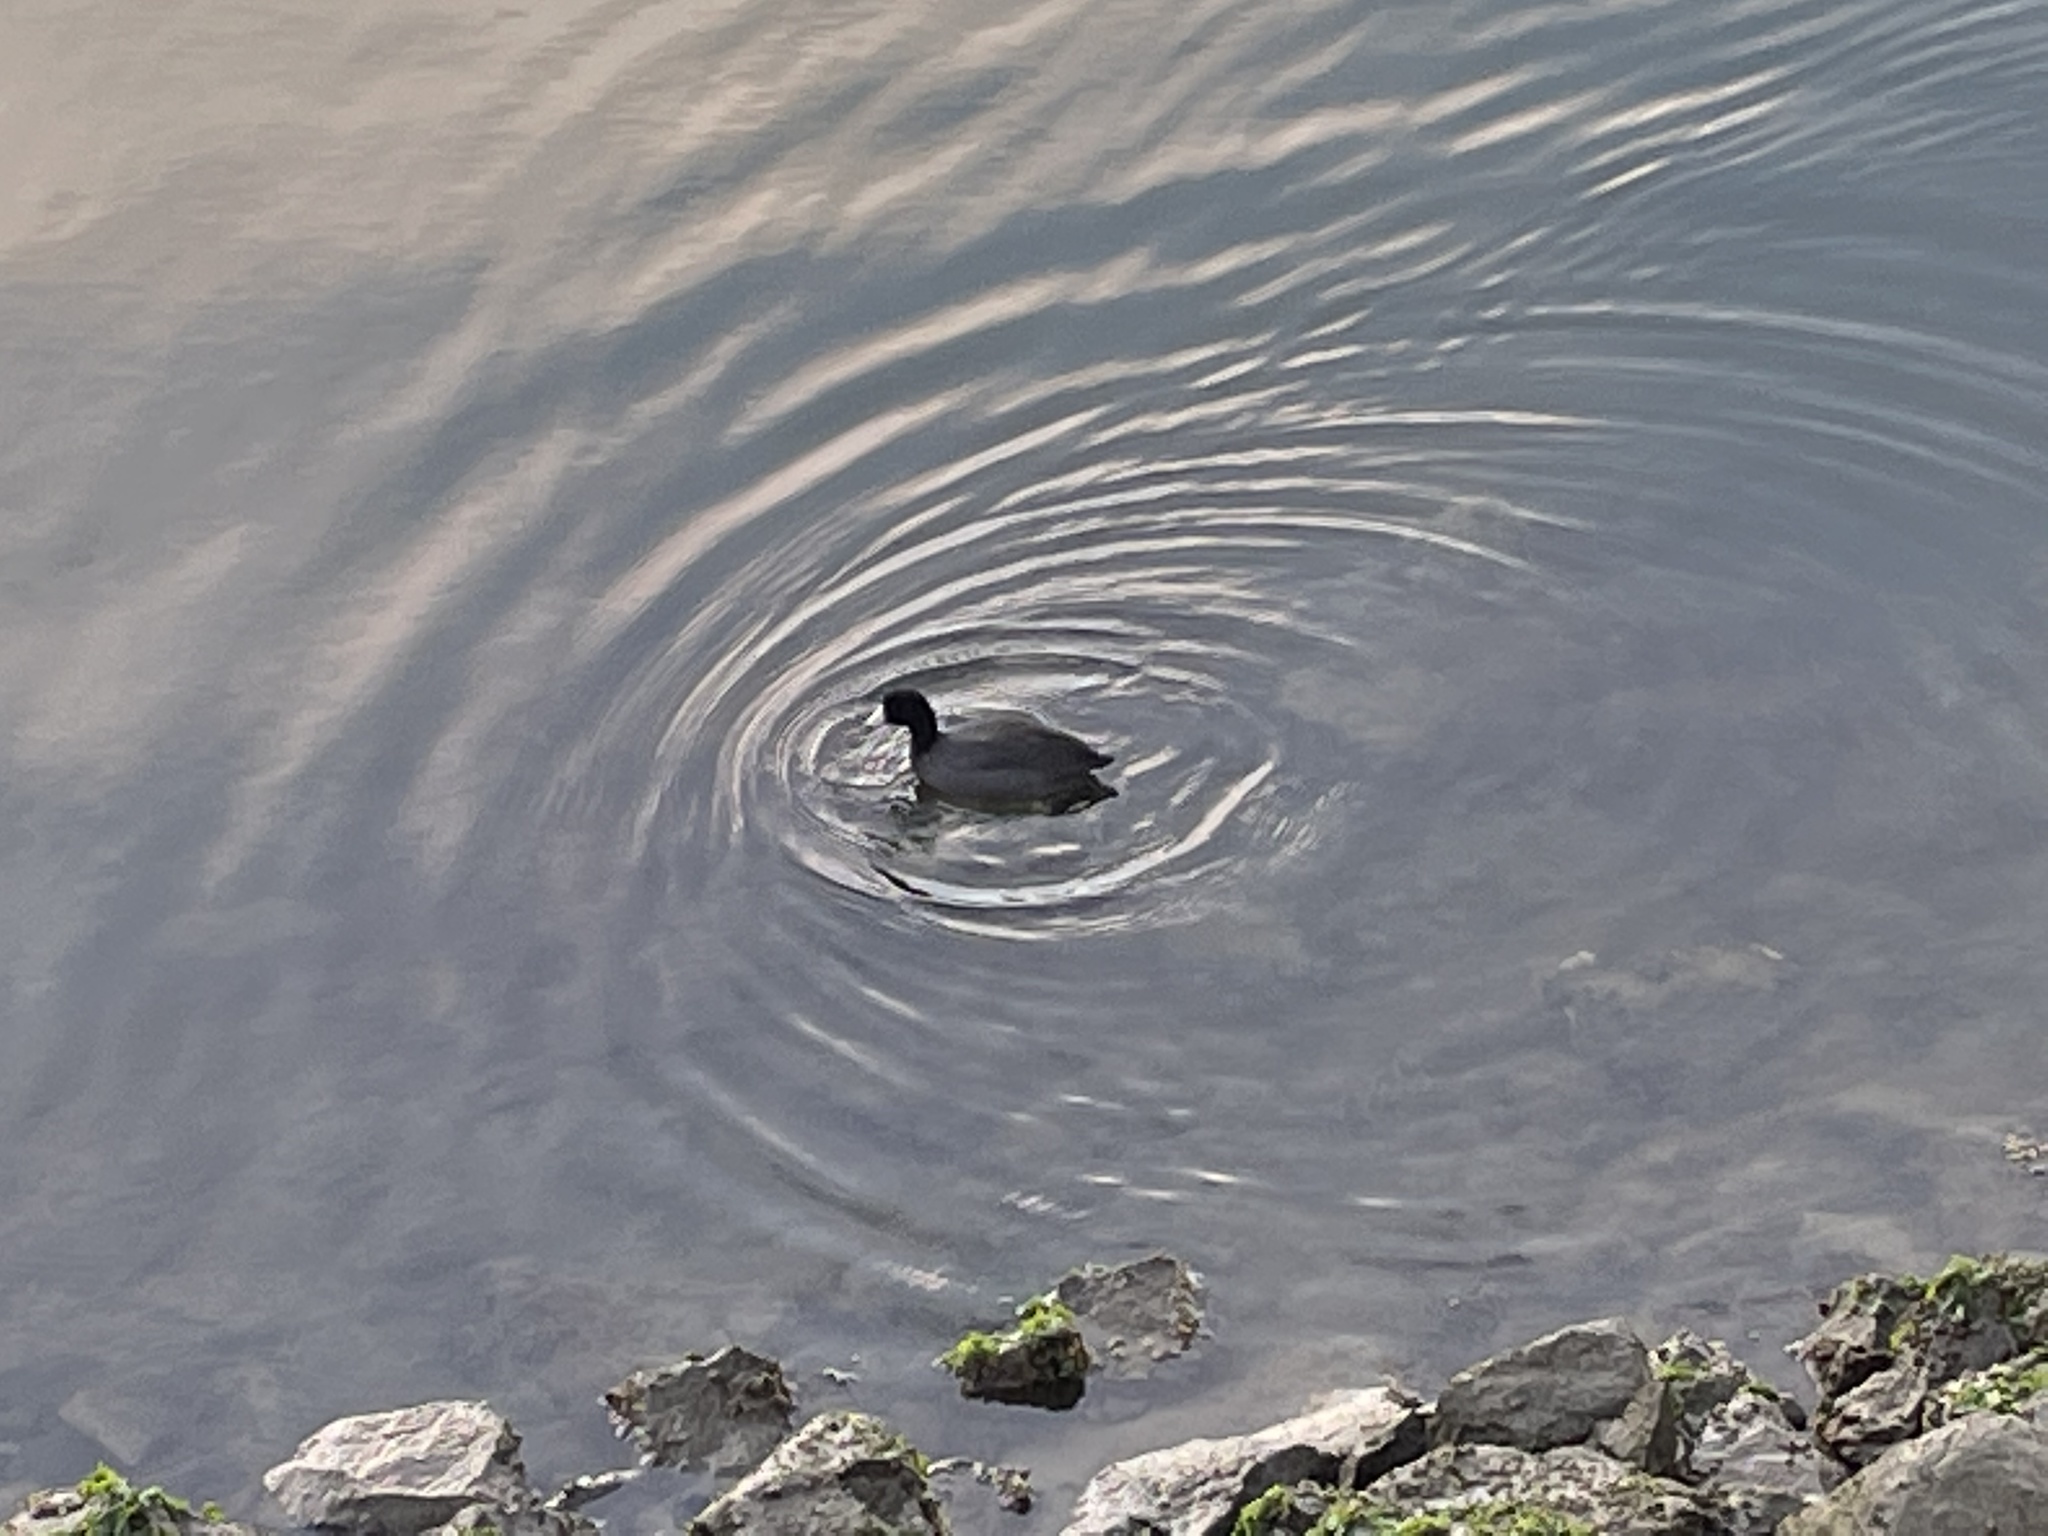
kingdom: Animalia
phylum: Chordata
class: Aves
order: Gruiformes
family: Rallidae
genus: Fulica
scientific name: Fulica americana
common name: American coot
